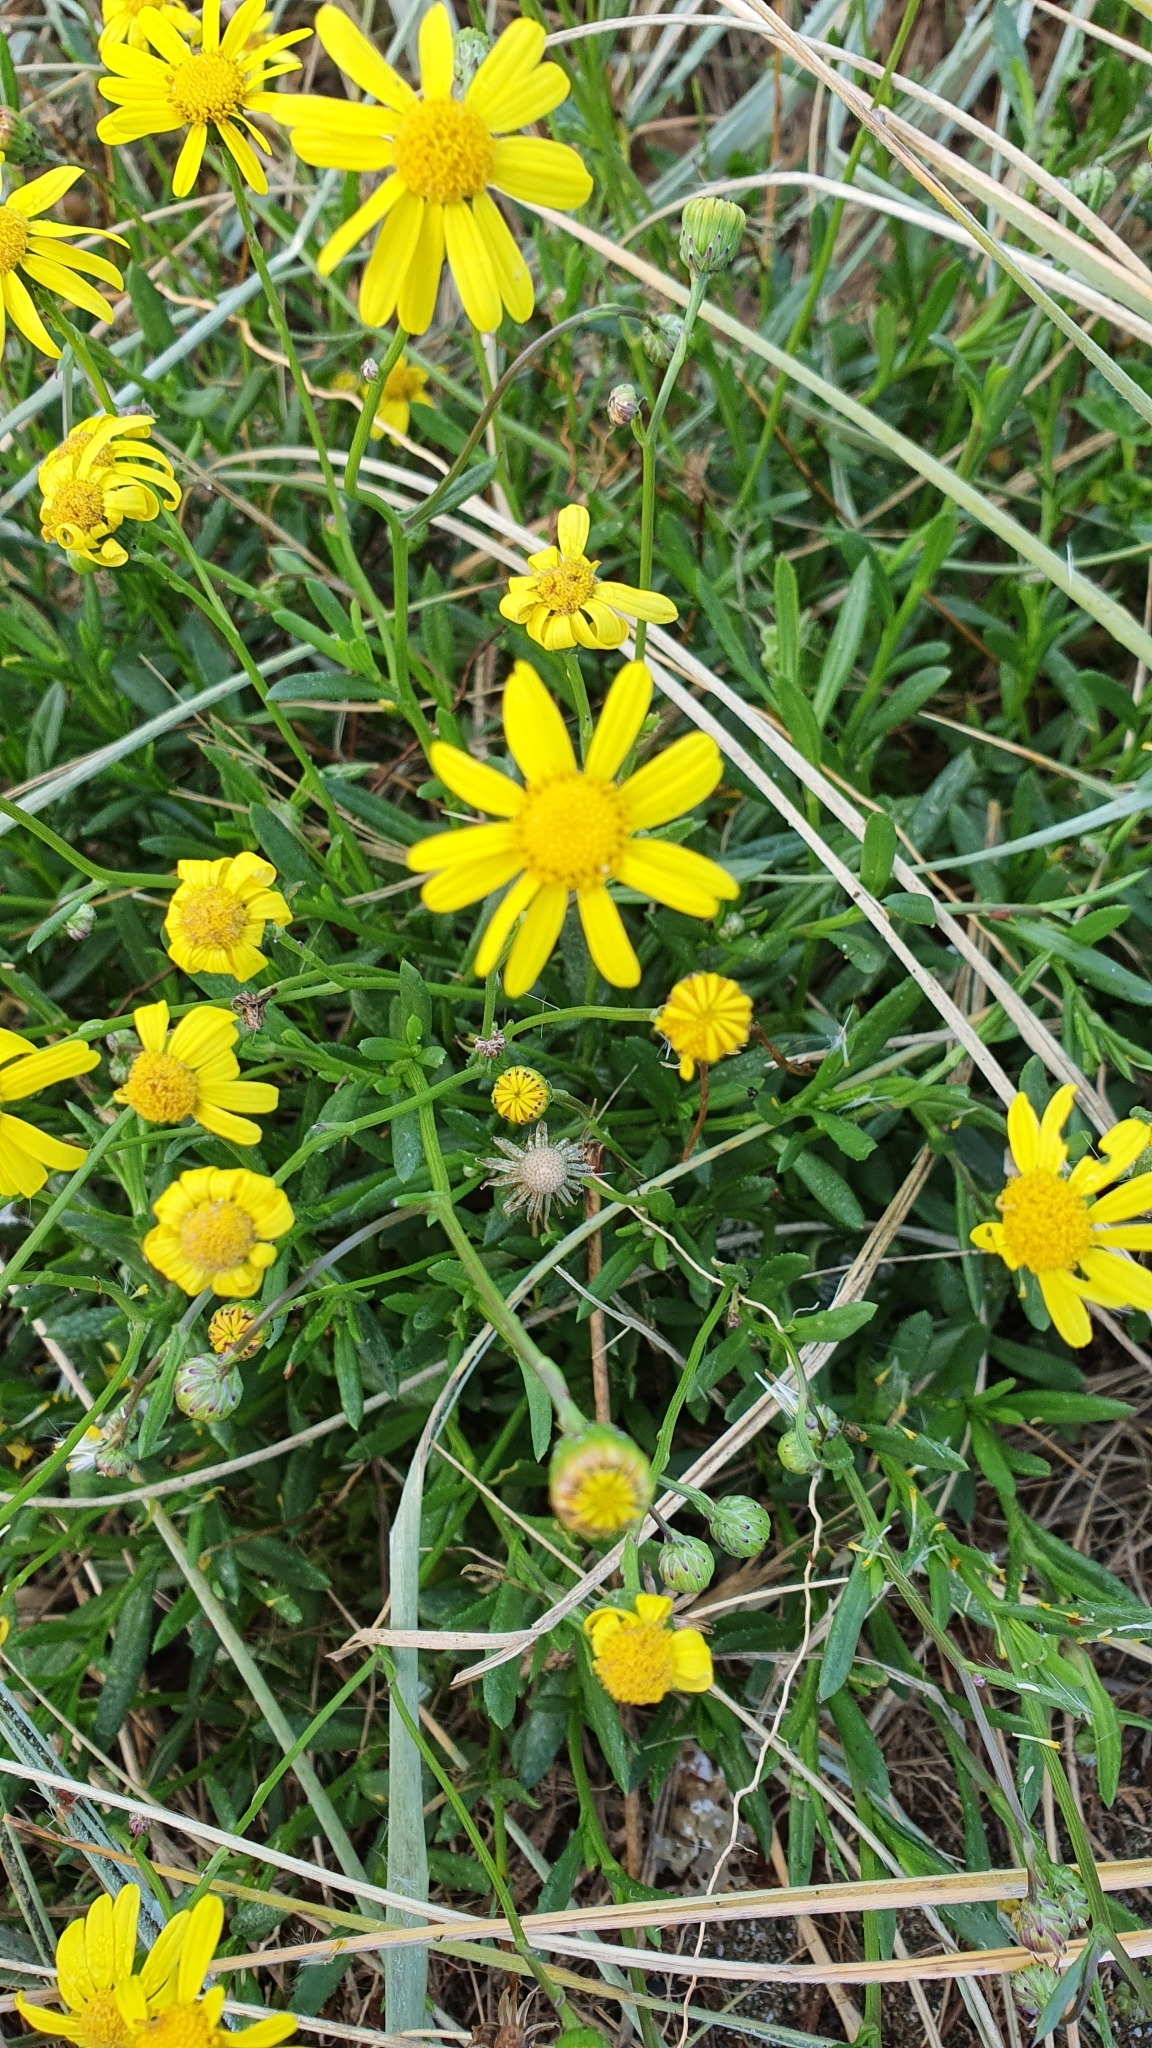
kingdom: Plantae
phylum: Tracheophyta
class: Magnoliopsida
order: Asterales
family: Asteraceae
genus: Senecio
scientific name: Senecio skirrhodon
